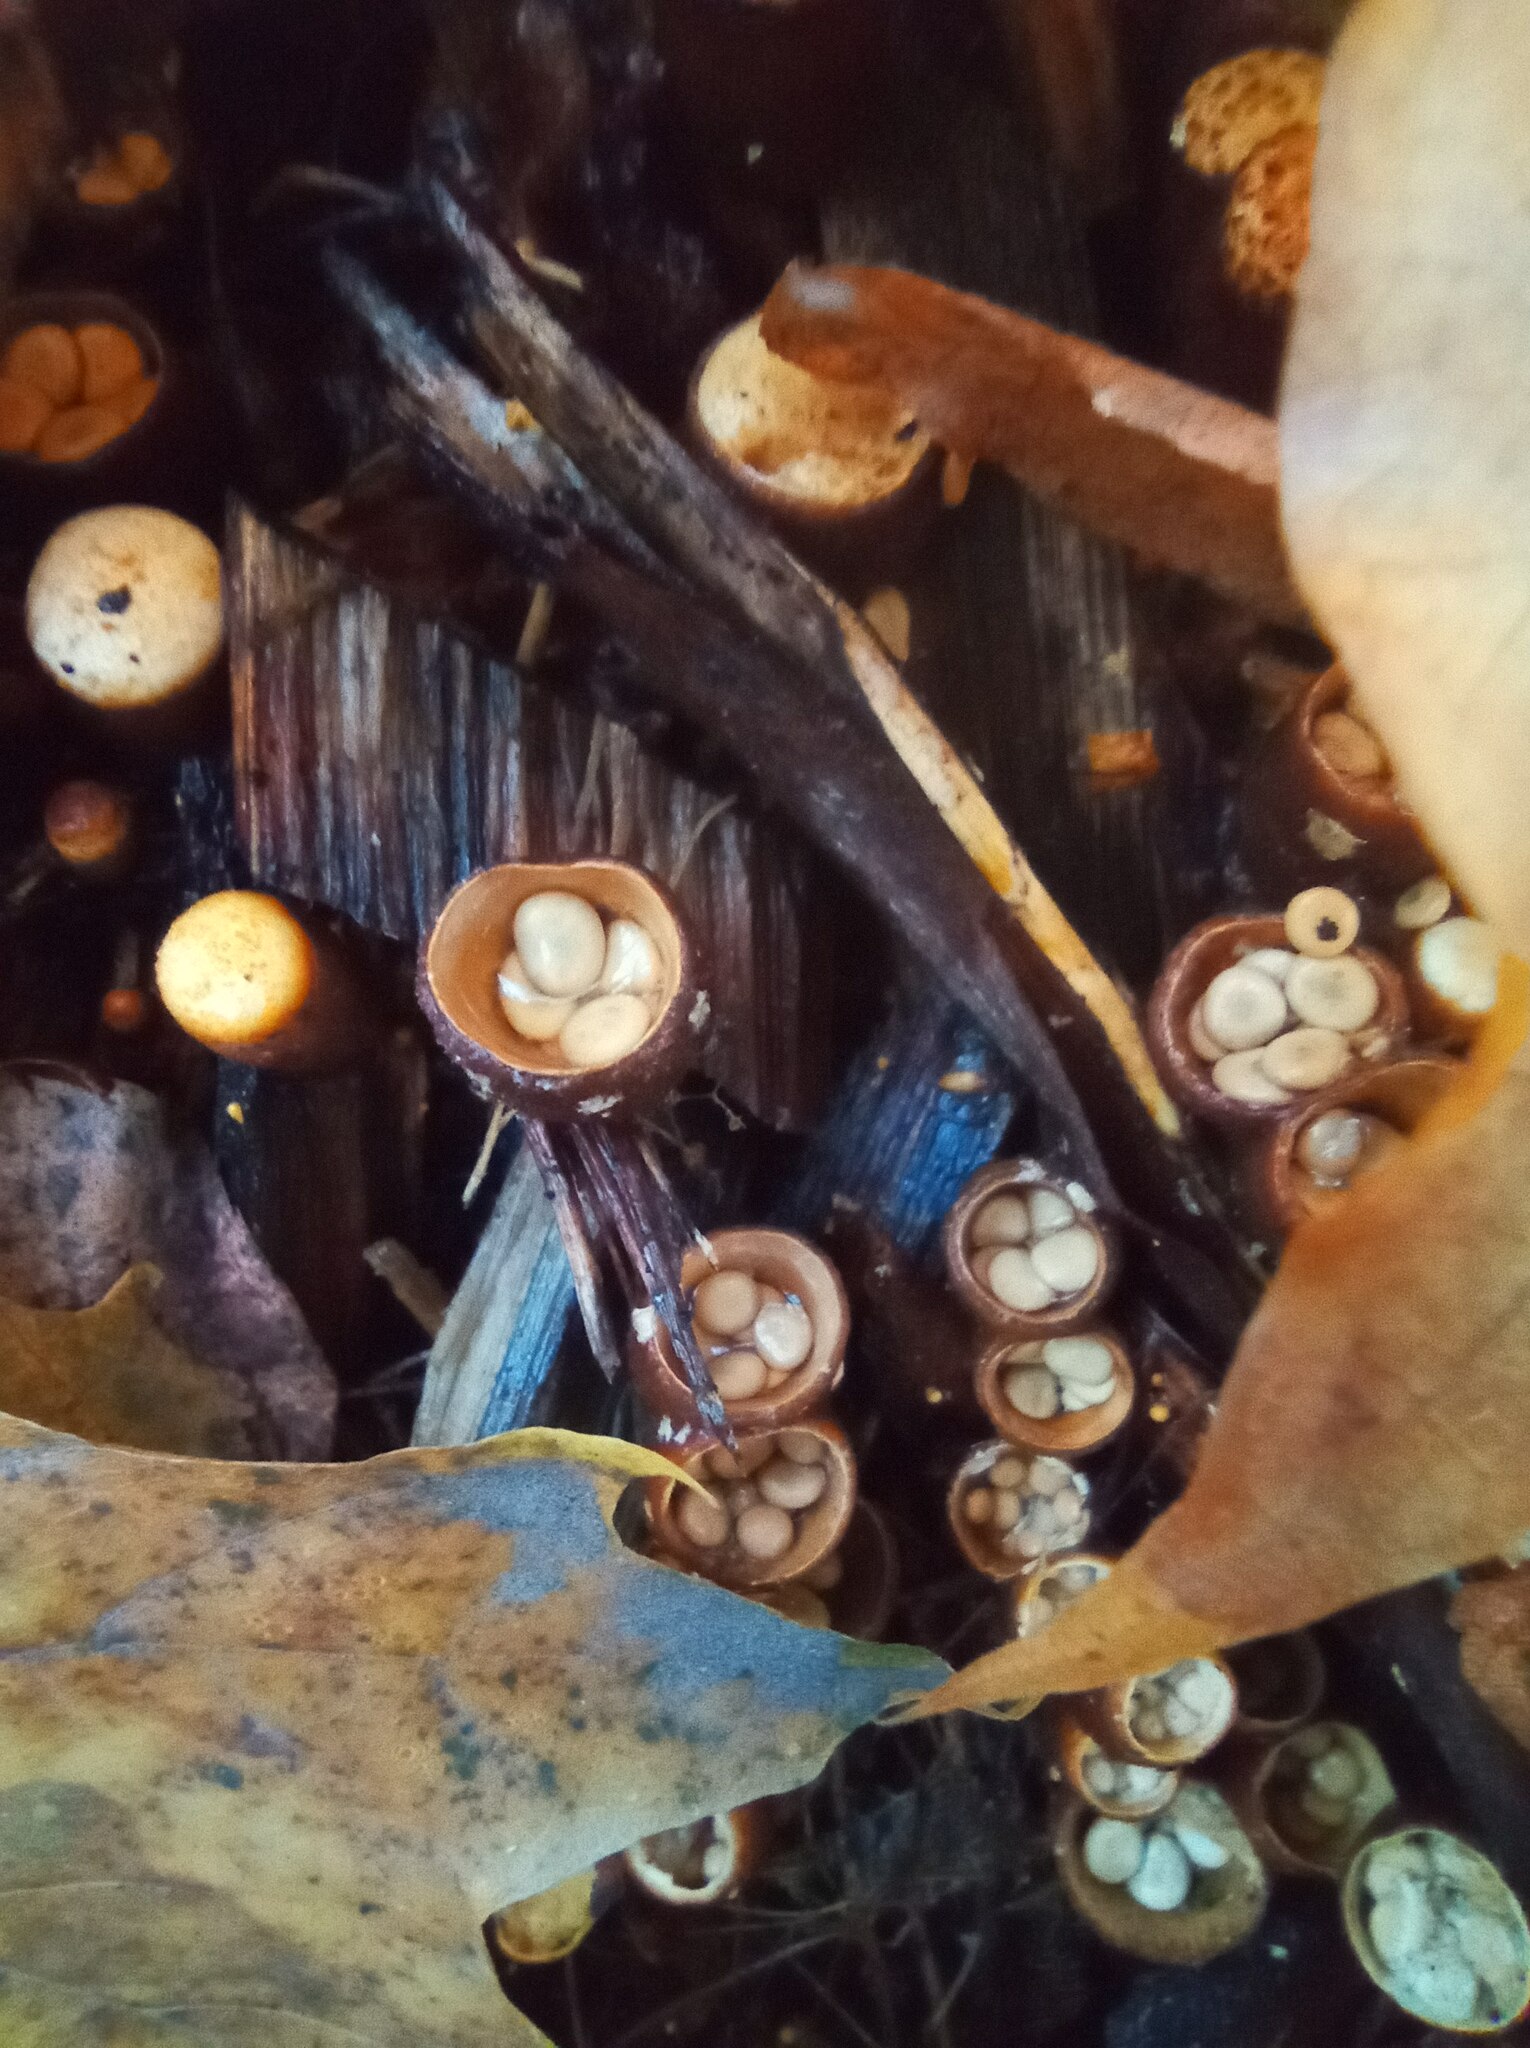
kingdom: Fungi
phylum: Basidiomycota
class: Agaricomycetes
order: Agaricales
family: Nidulariaceae
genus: Crucibulum
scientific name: Crucibulum laeve
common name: Common bird's nest
